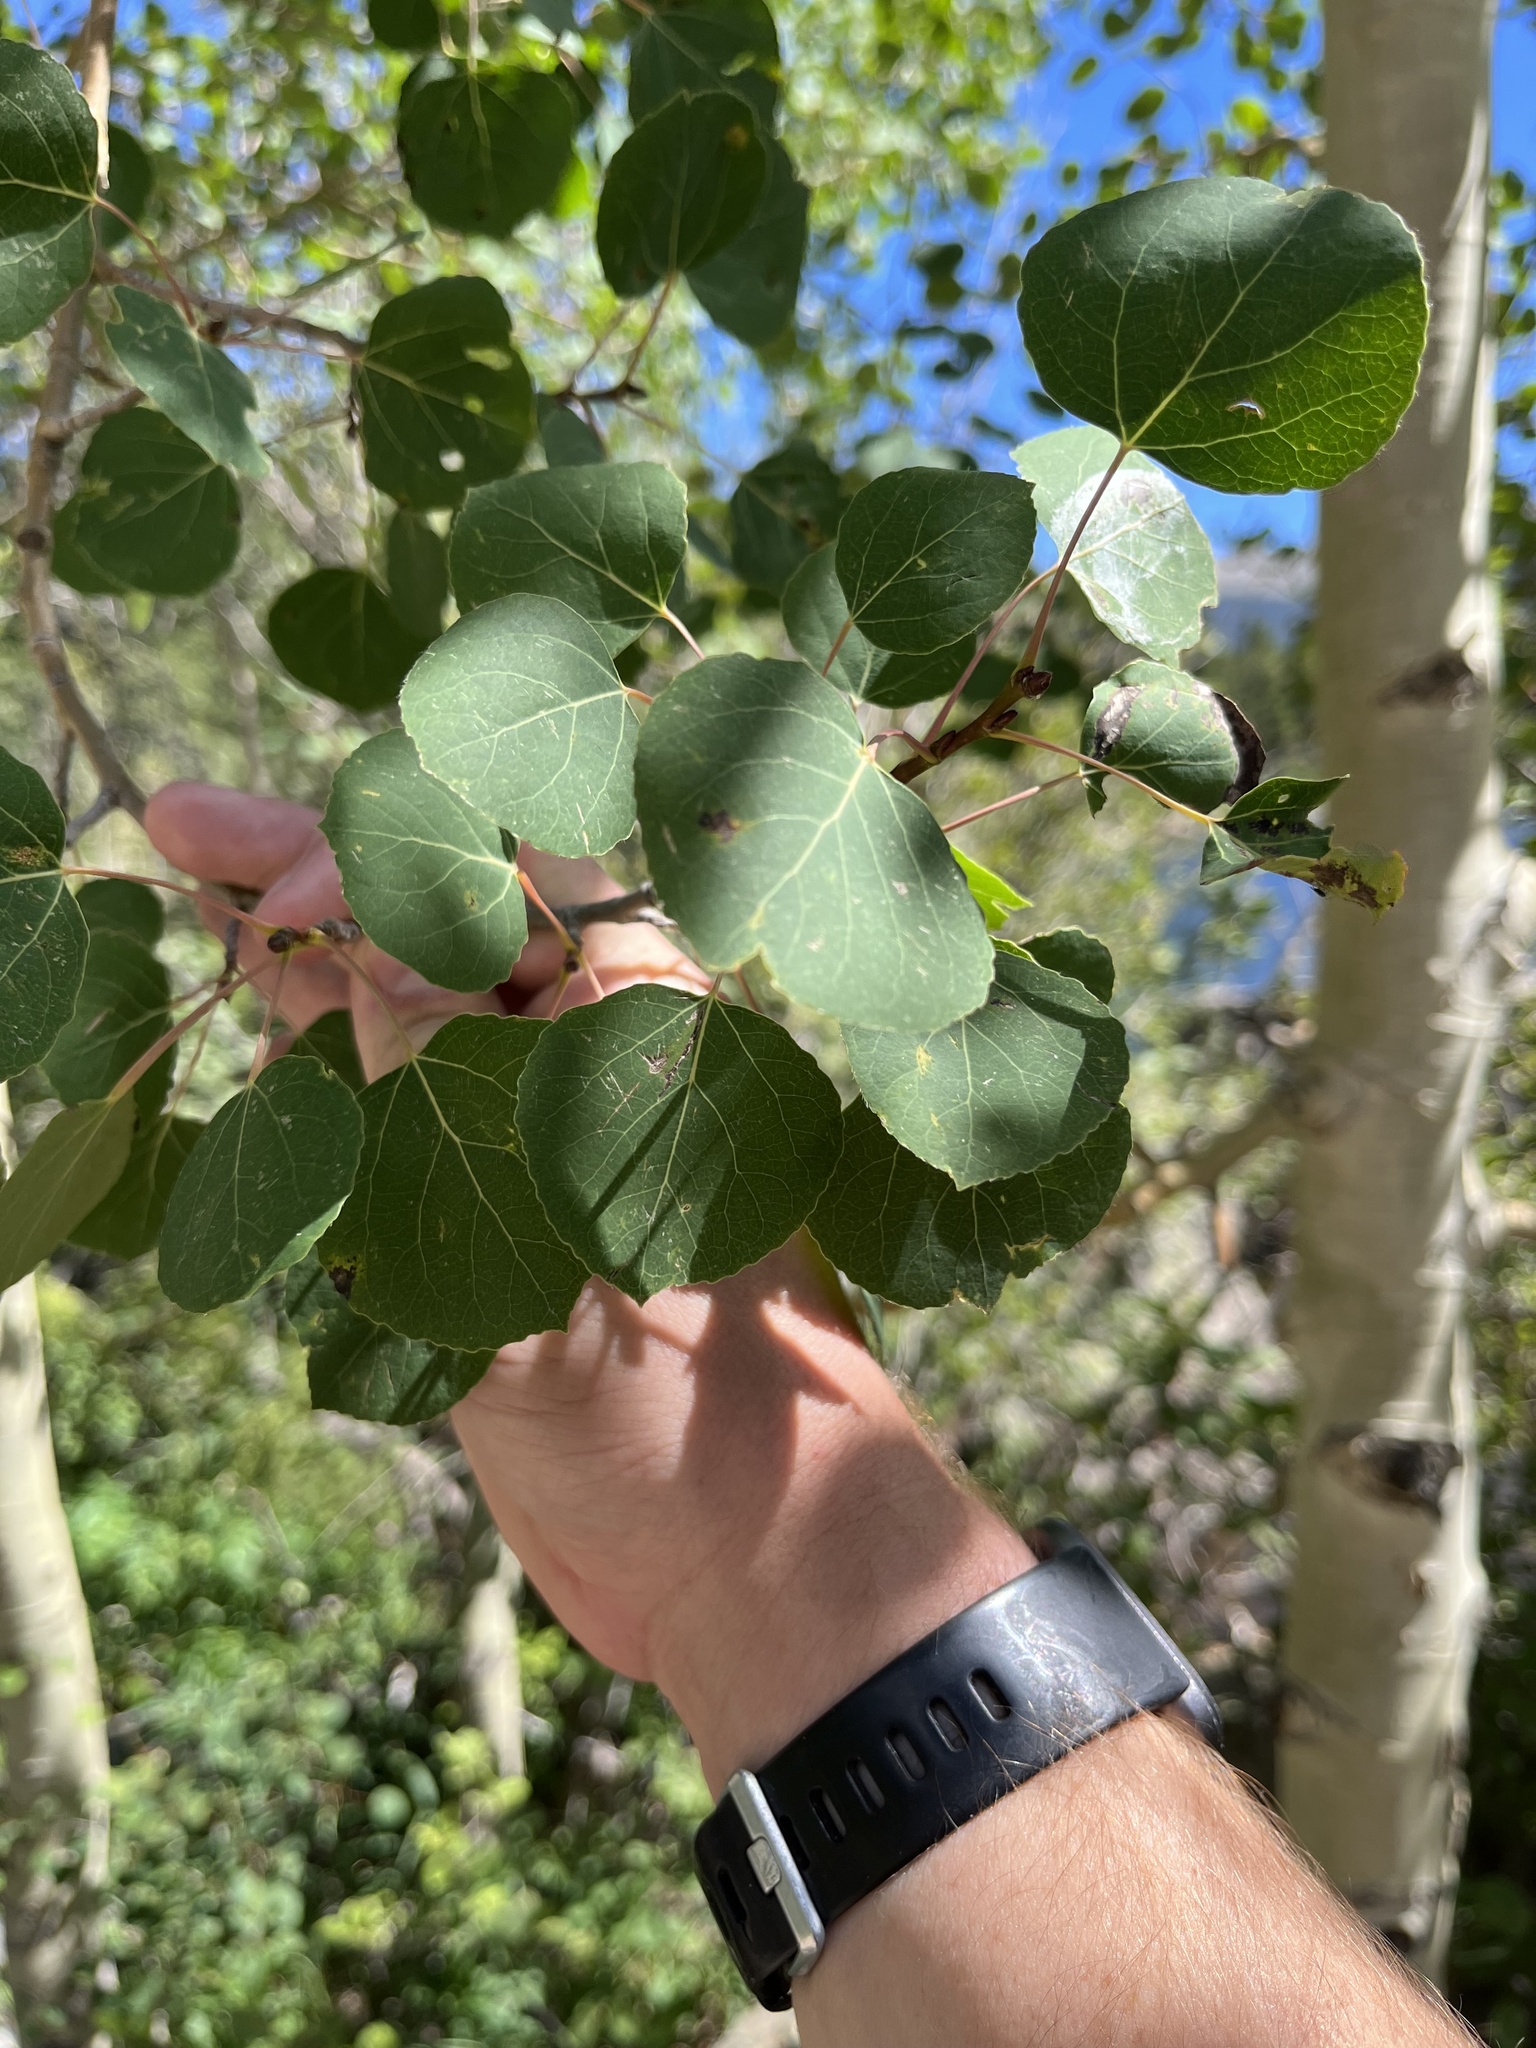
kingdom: Plantae
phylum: Tracheophyta
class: Magnoliopsida
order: Malpighiales
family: Salicaceae
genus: Populus
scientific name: Populus tremuloides
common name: Quaking aspen
